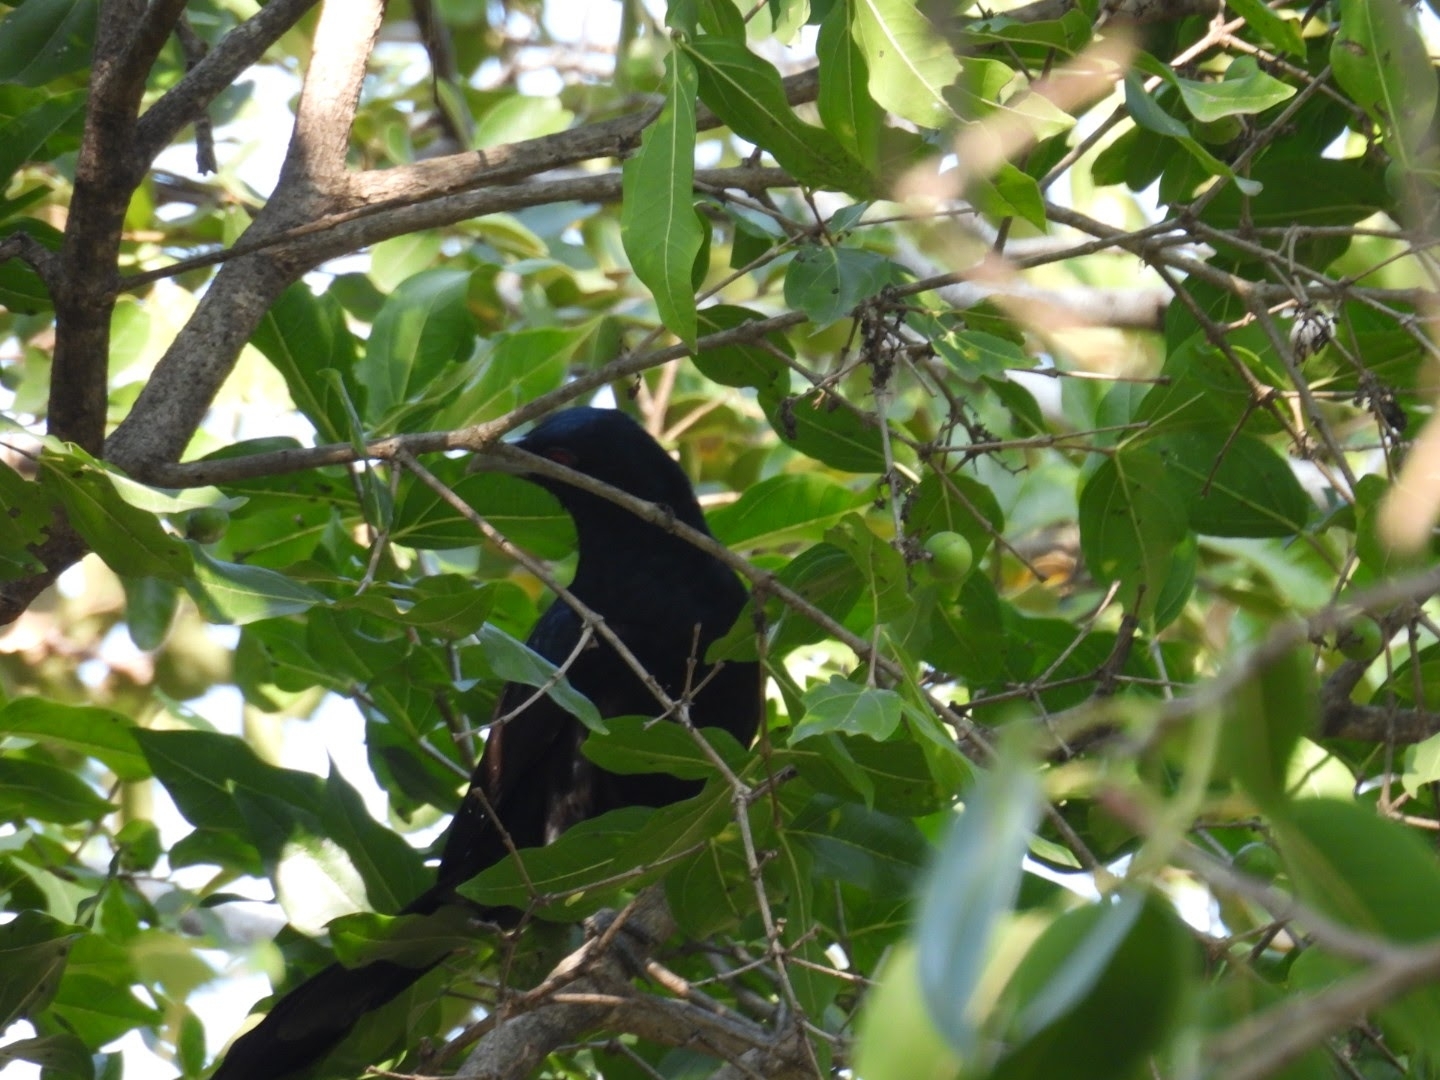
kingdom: Animalia
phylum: Chordata
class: Aves
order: Cuculiformes
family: Cuculidae
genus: Eudynamys
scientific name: Eudynamys scolopaceus
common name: Asian koel
